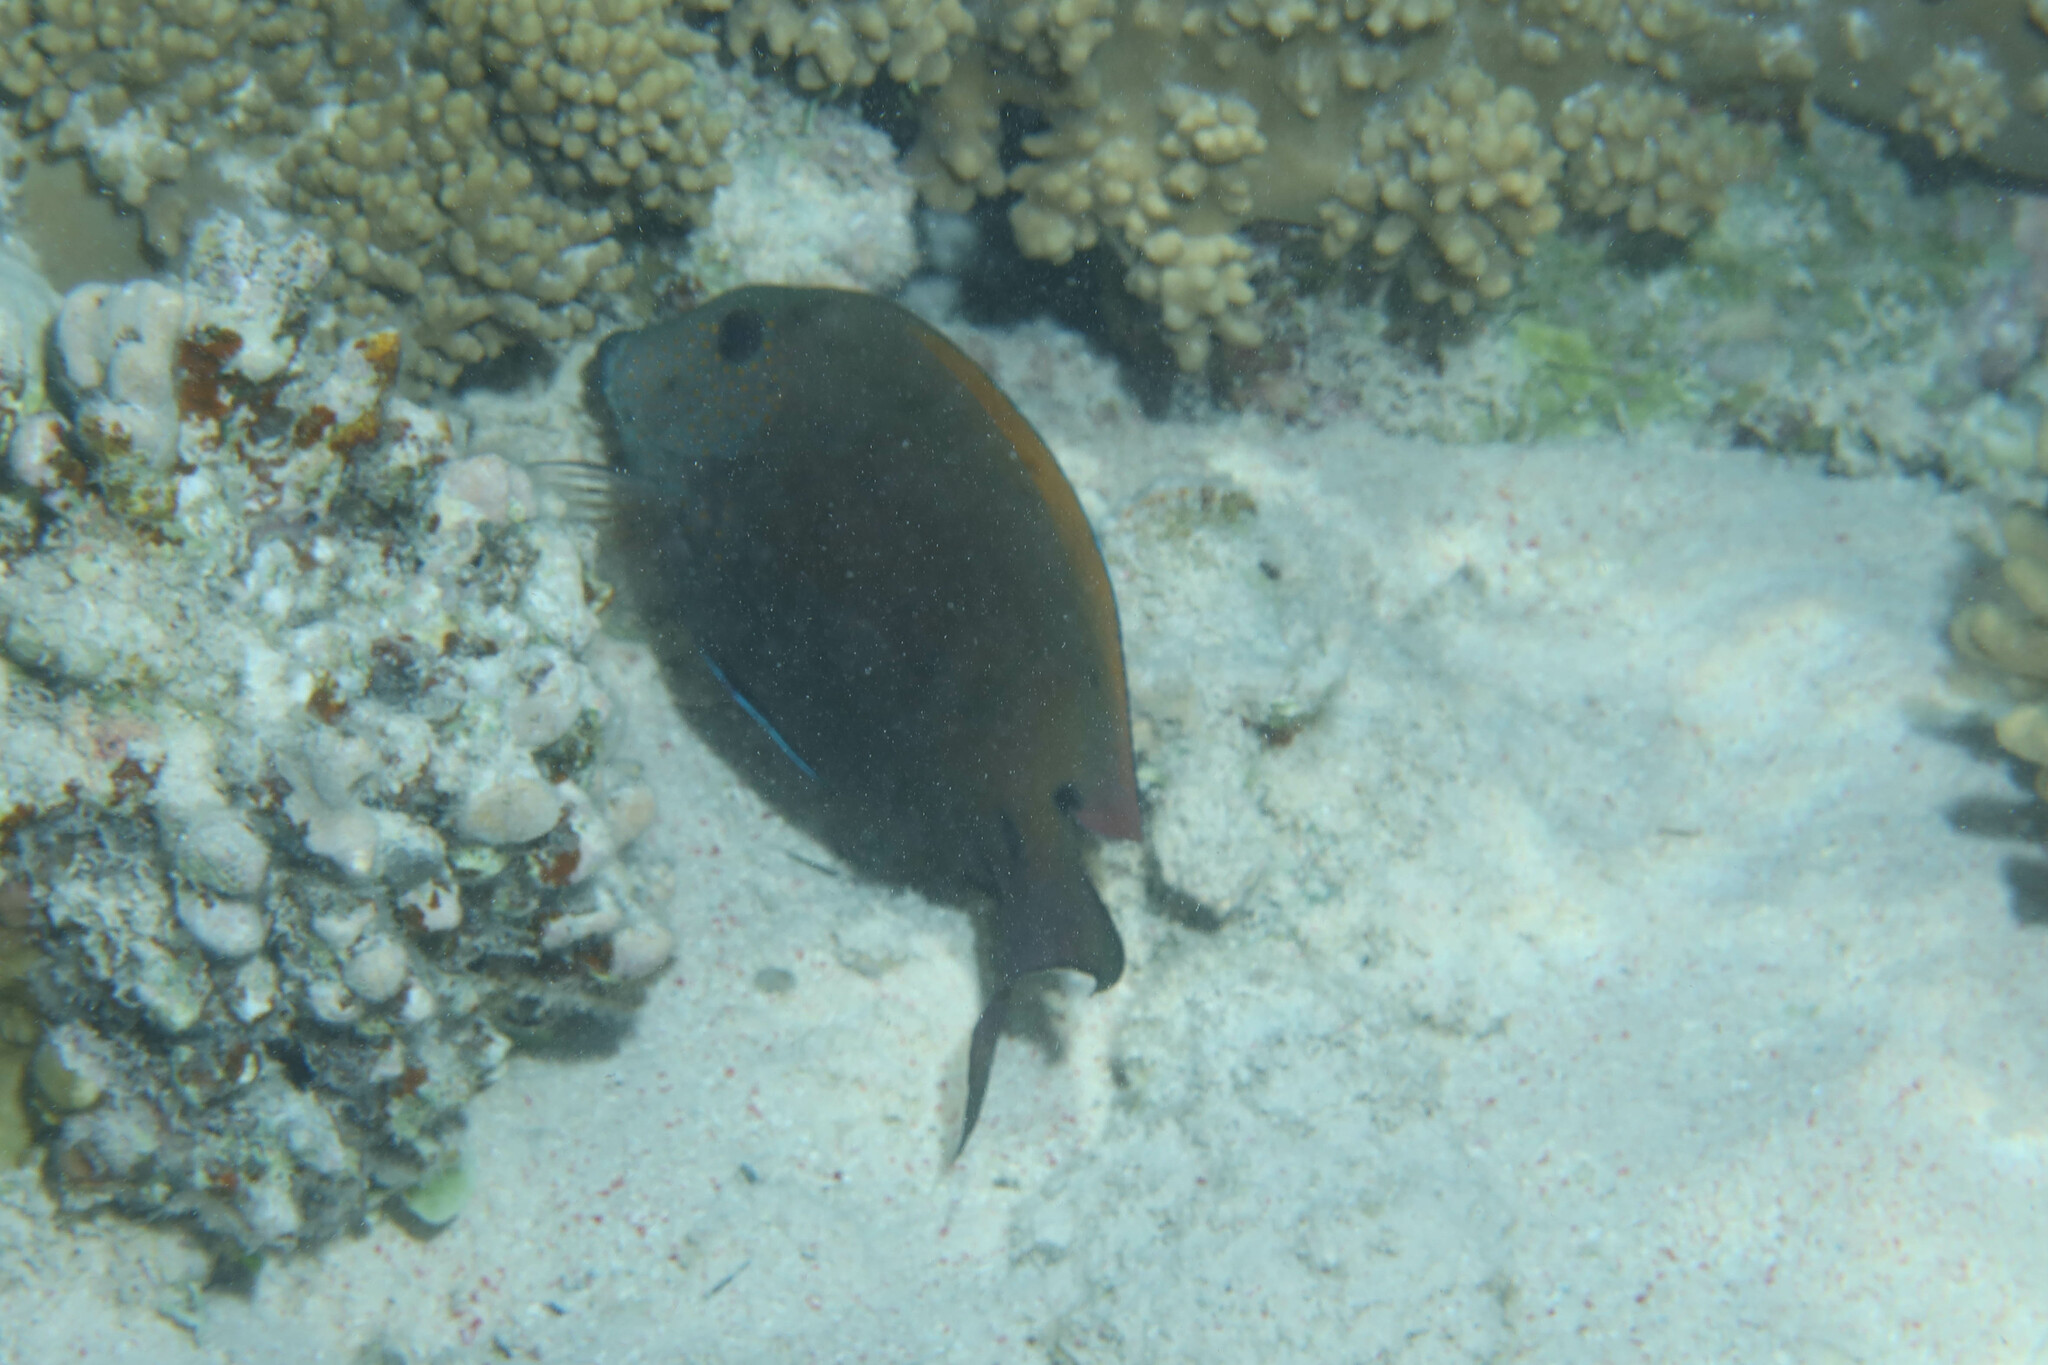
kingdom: Animalia
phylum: Chordata
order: Perciformes
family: Acanthuridae
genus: Acanthurus
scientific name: Acanthurus nigrofuscus
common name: Blackspot surgeonfish
